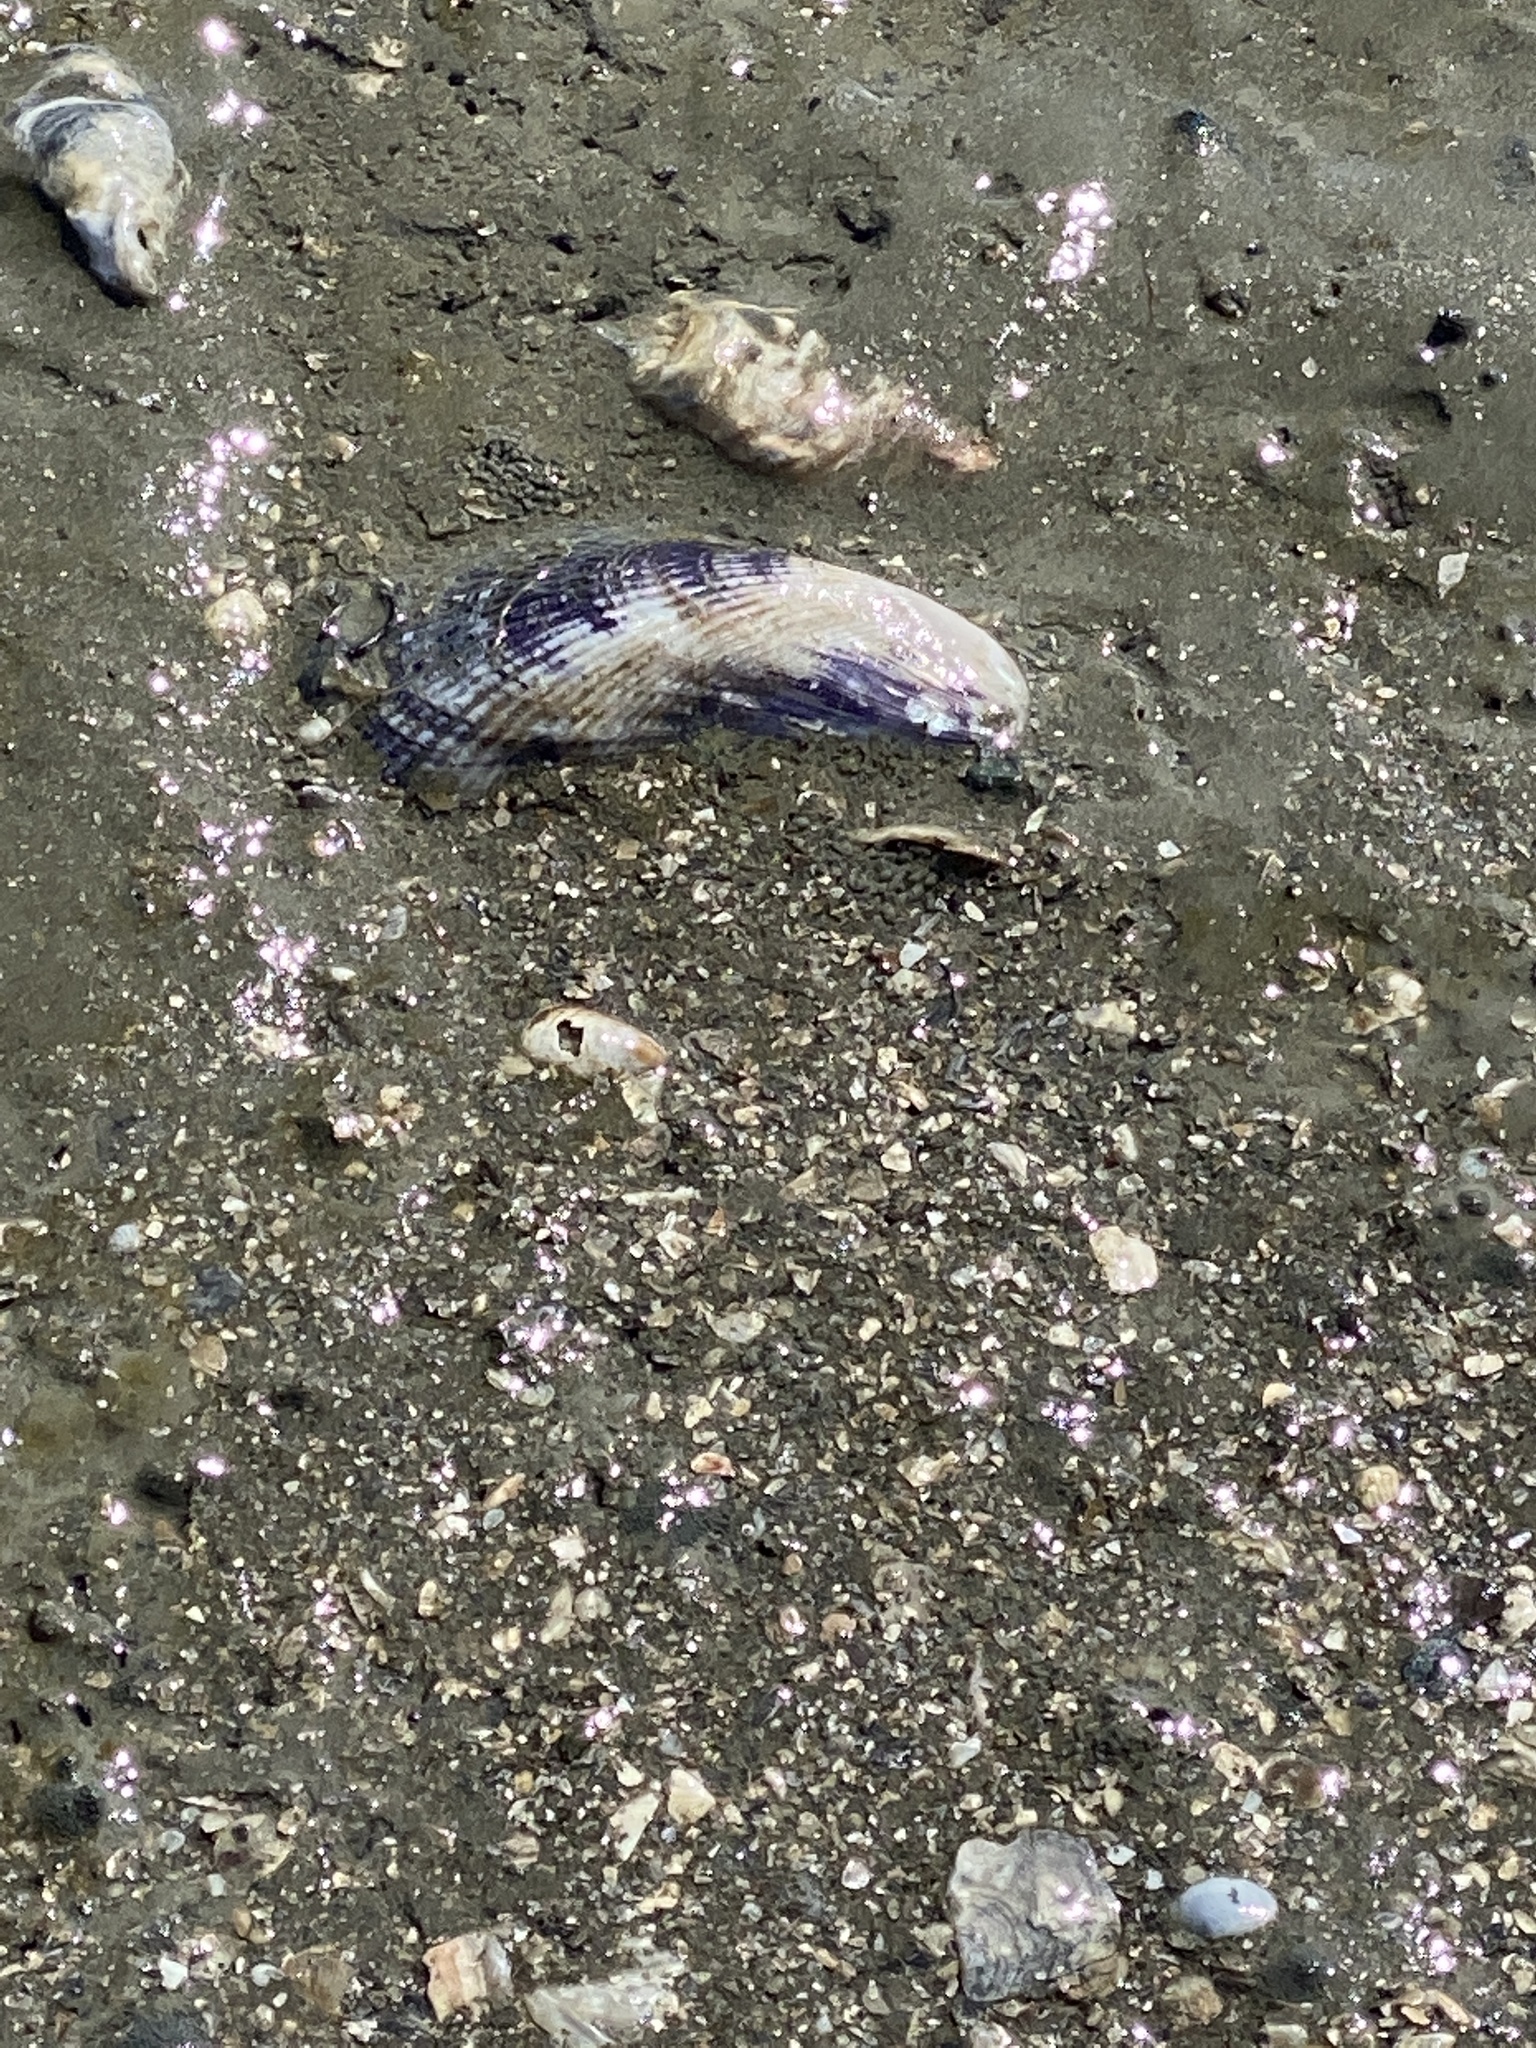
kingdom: Animalia
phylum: Mollusca
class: Bivalvia
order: Mytilida
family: Mytilidae
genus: Geukensia
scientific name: Geukensia demissa
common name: Ribbed mussel
